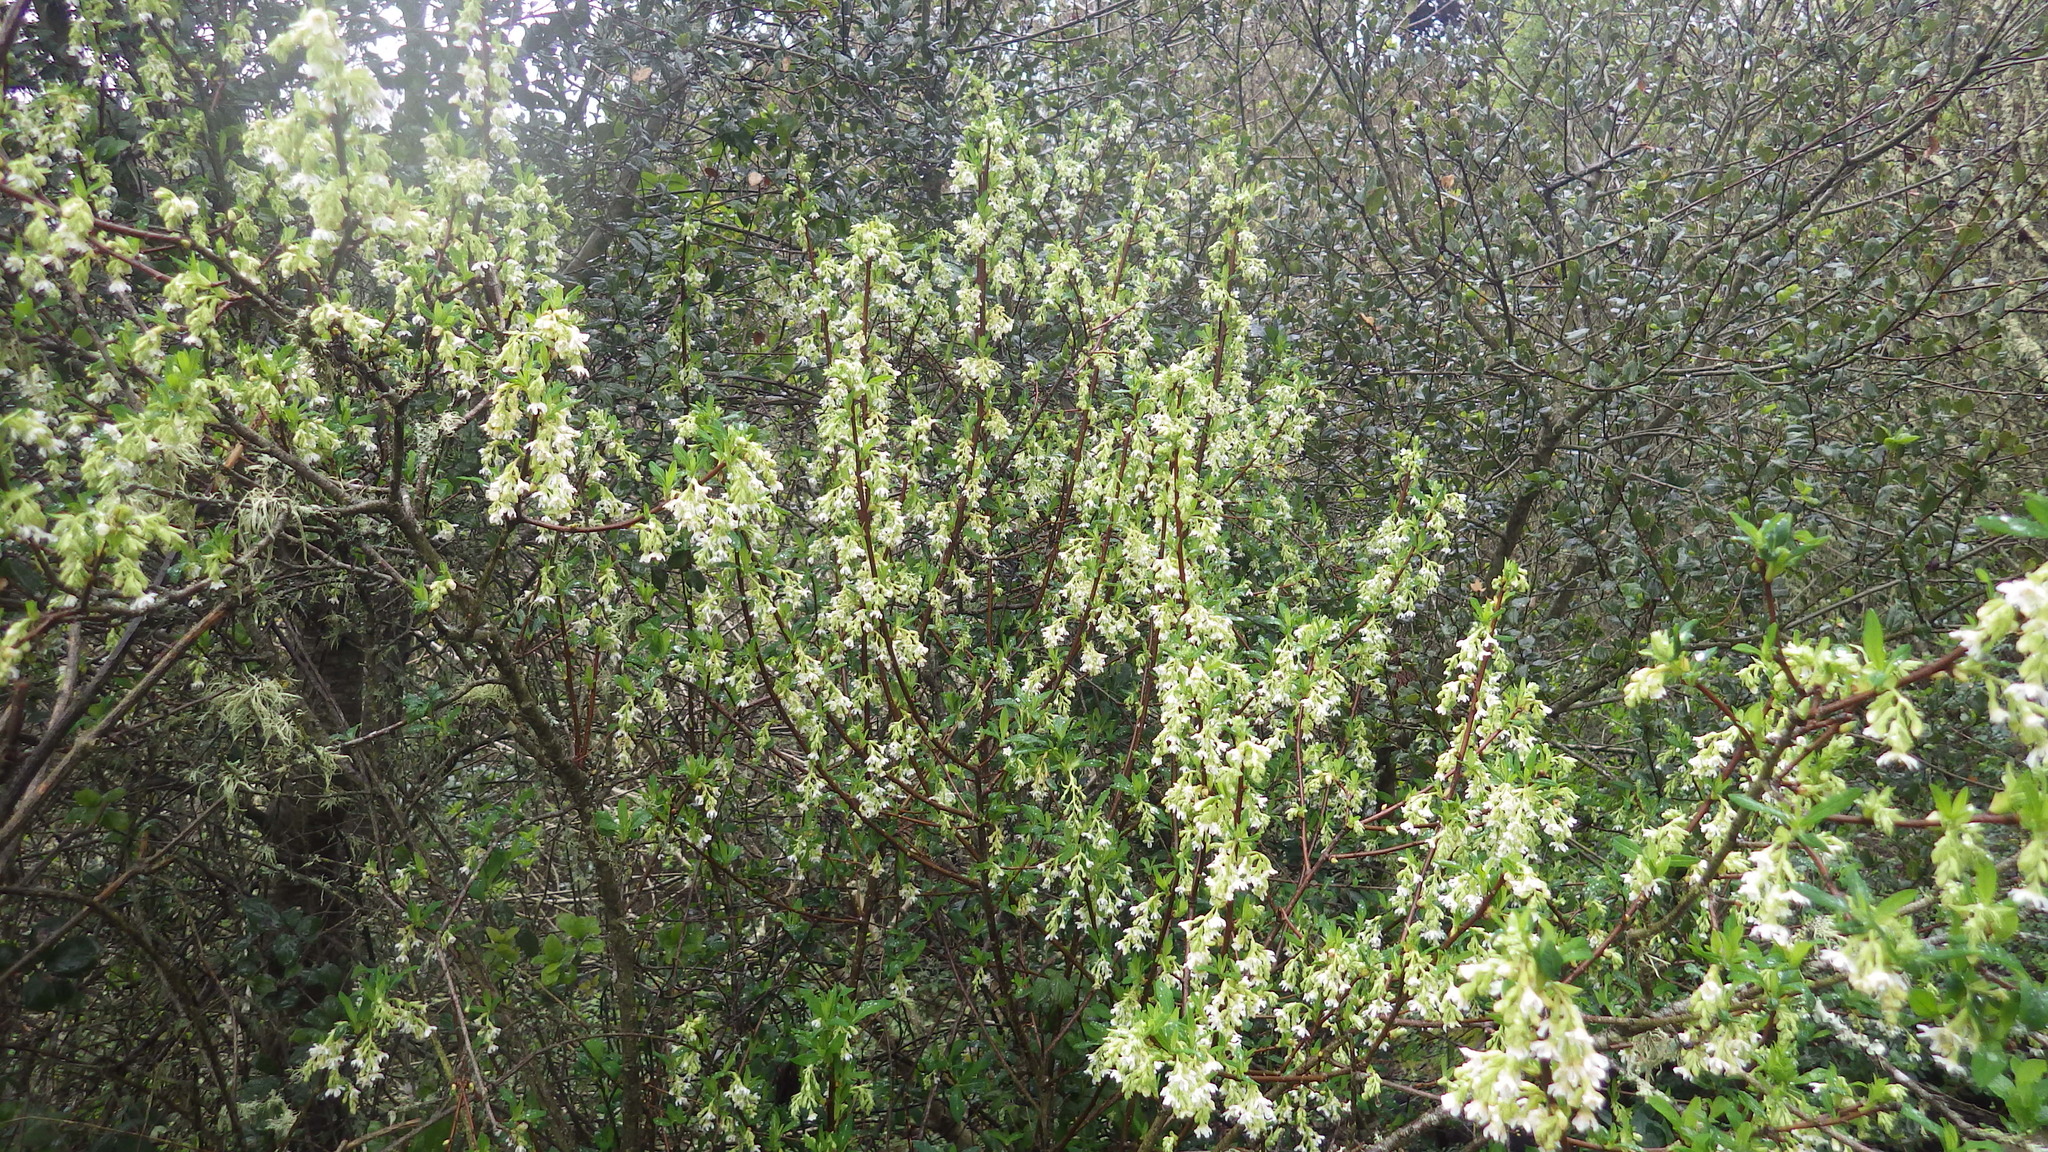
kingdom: Plantae
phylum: Tracheophyta
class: Magnoliopsida
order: Rosales
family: Rosaceae
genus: Oemleria
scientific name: Oemleria cerasiformis
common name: Osoberry
